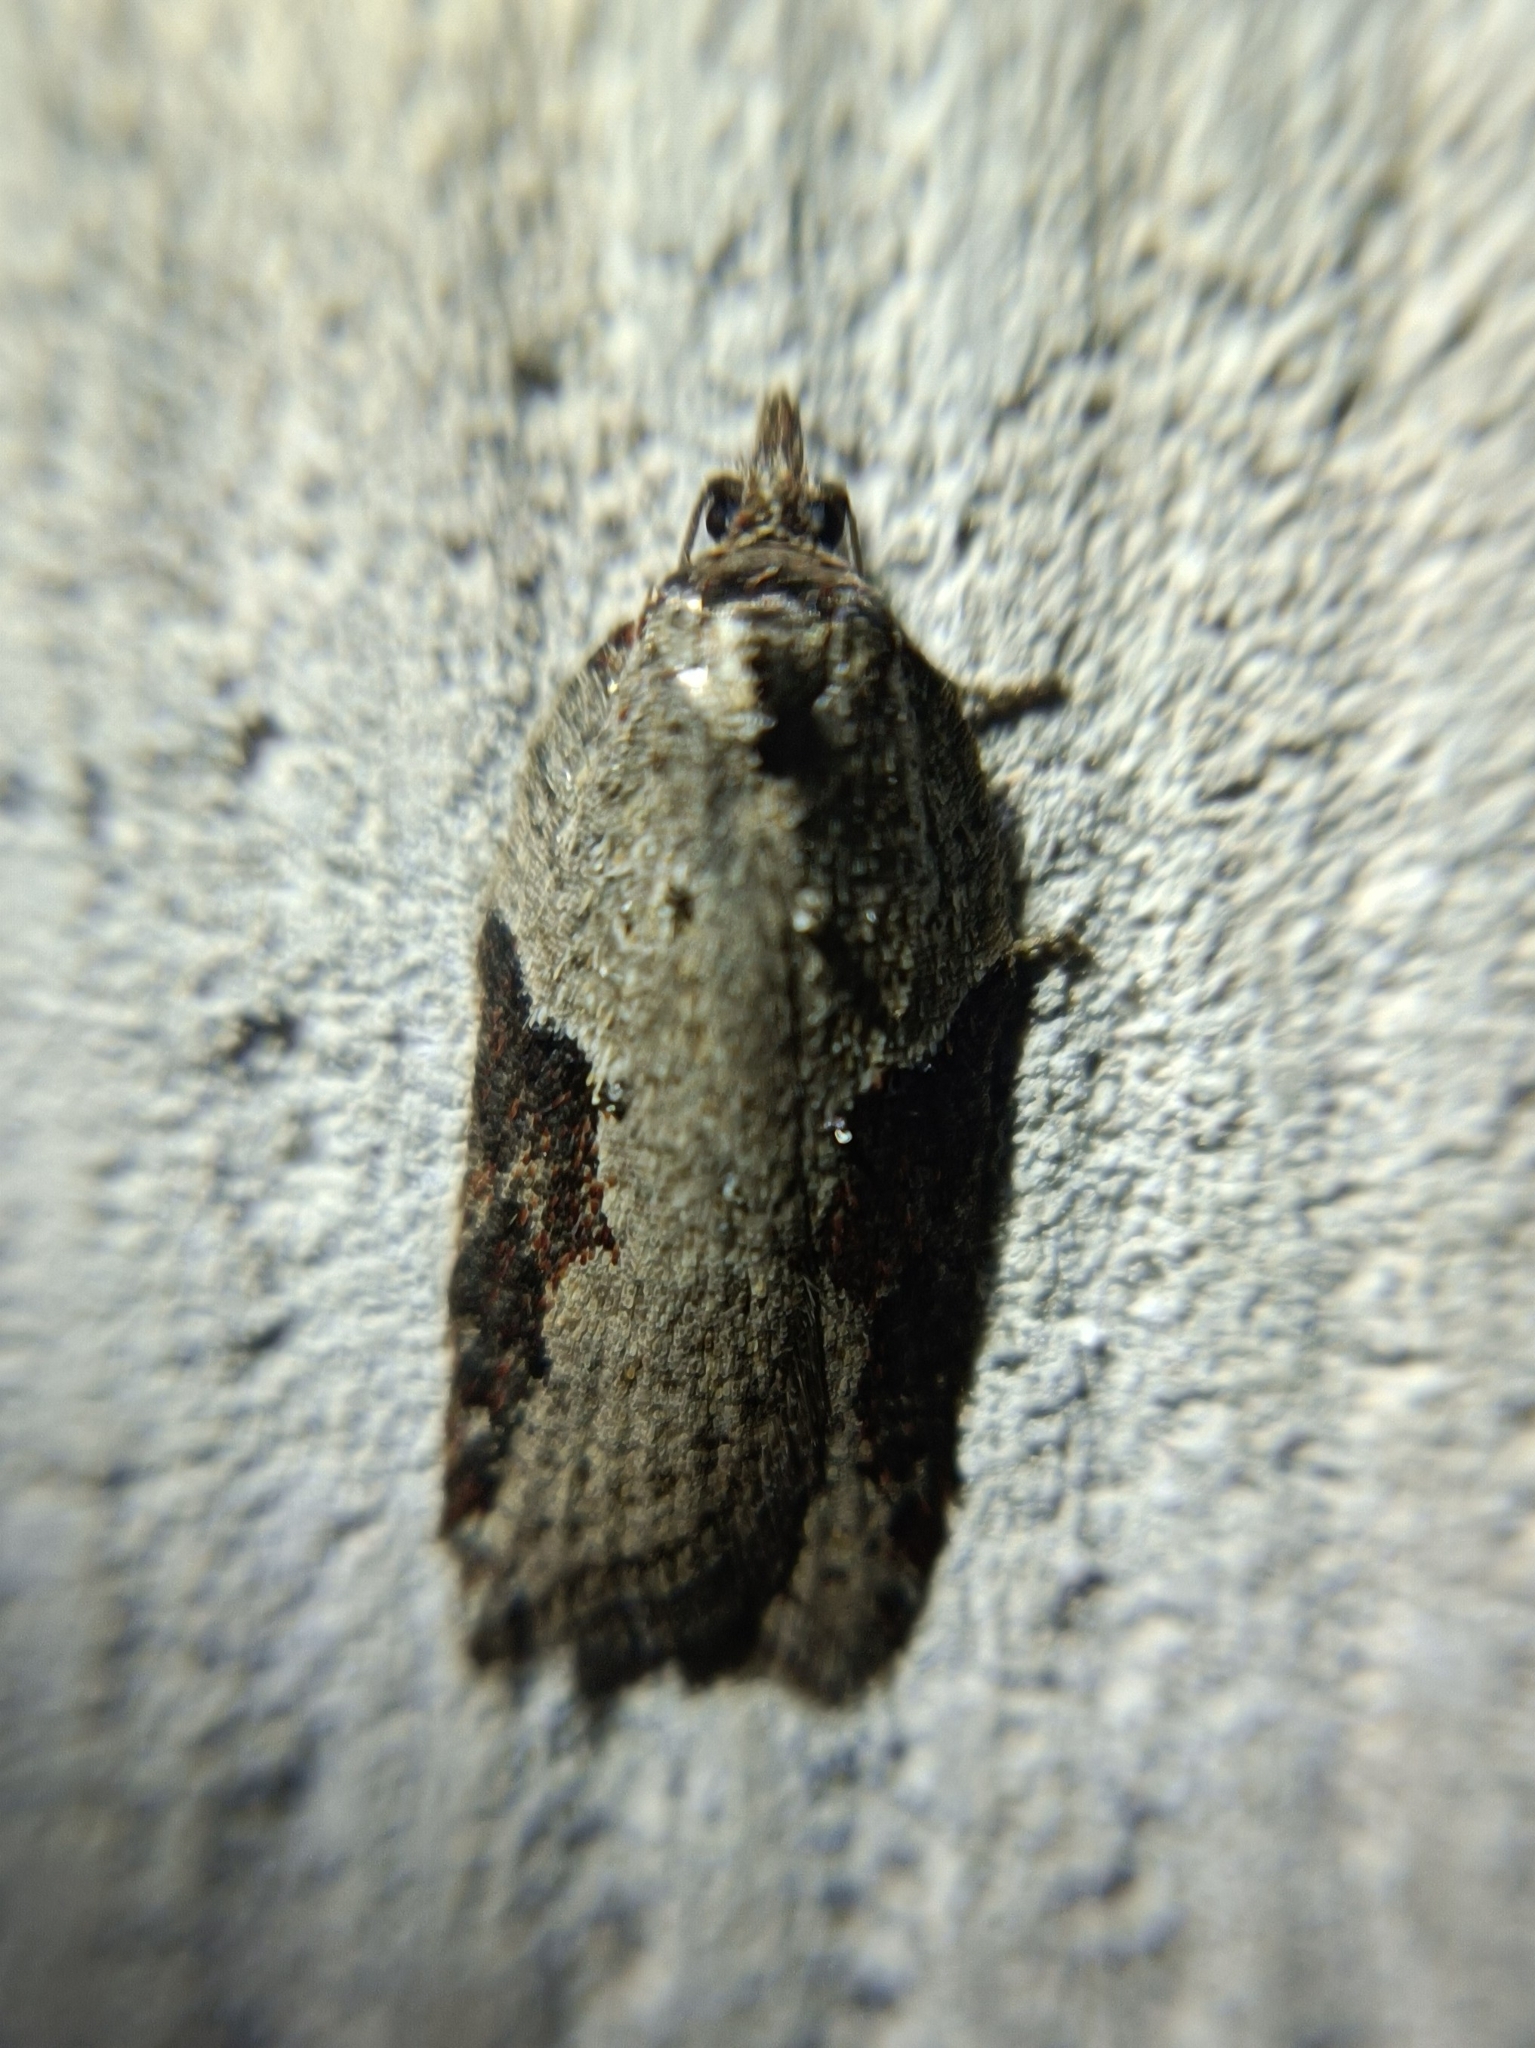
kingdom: Animalia
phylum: Arthropoda
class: Insecta
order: Lepidoptera
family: Tortricidae
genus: Acleris
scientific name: Acleris obtusana
